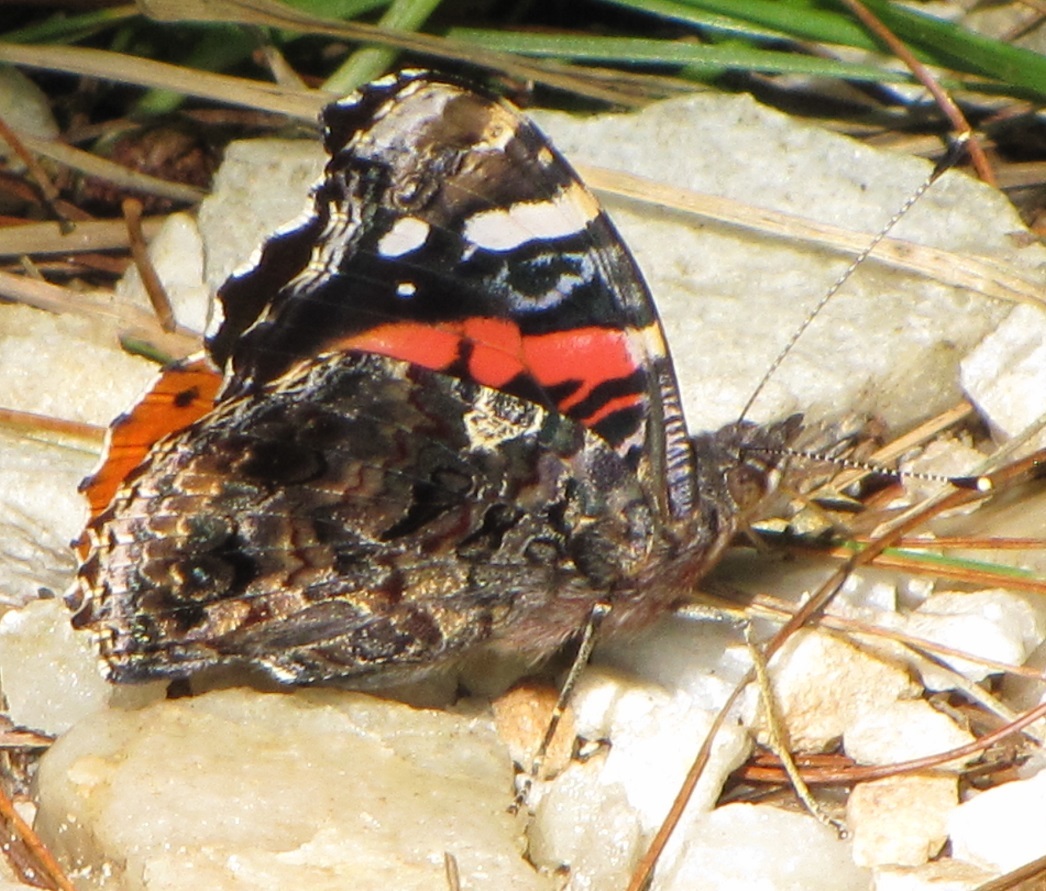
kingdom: Animalia
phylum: Arthropoda
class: Insecta
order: Lepidoptera
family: Nymphalidae
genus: Vanessa
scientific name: Vanessa atalanta
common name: Red admiral
